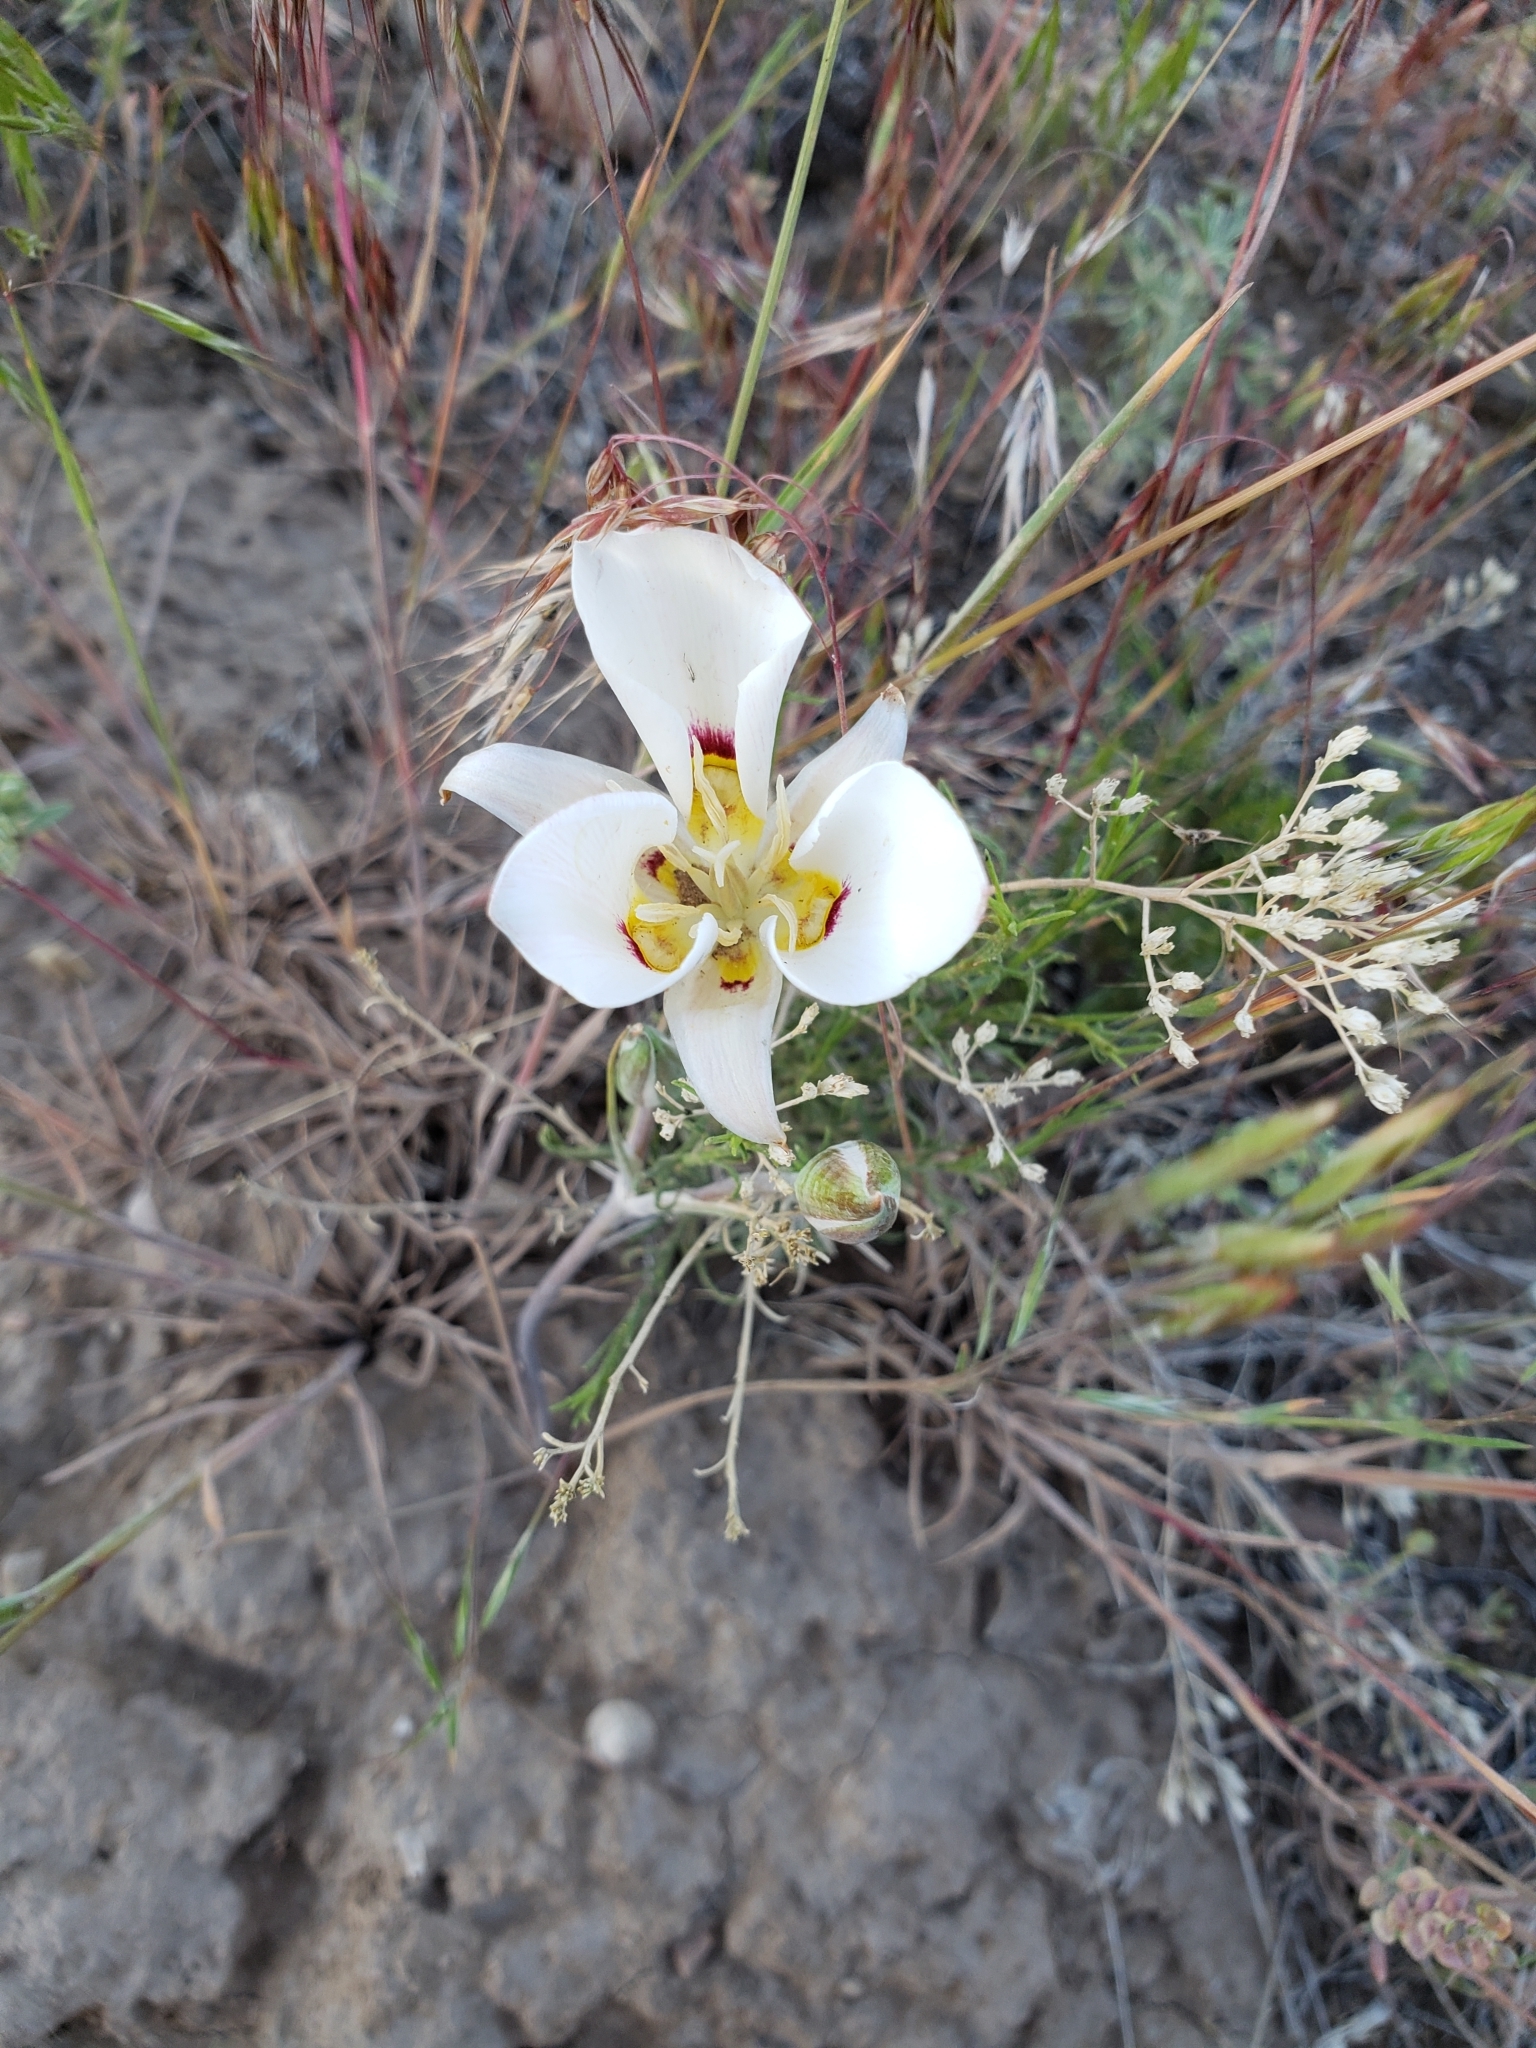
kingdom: Plantae
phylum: Tracheophyta
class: Liliopsida
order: Liliales
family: Liliaceae
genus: Calochortus
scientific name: Calochortus nuttallii
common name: Sego-lily
